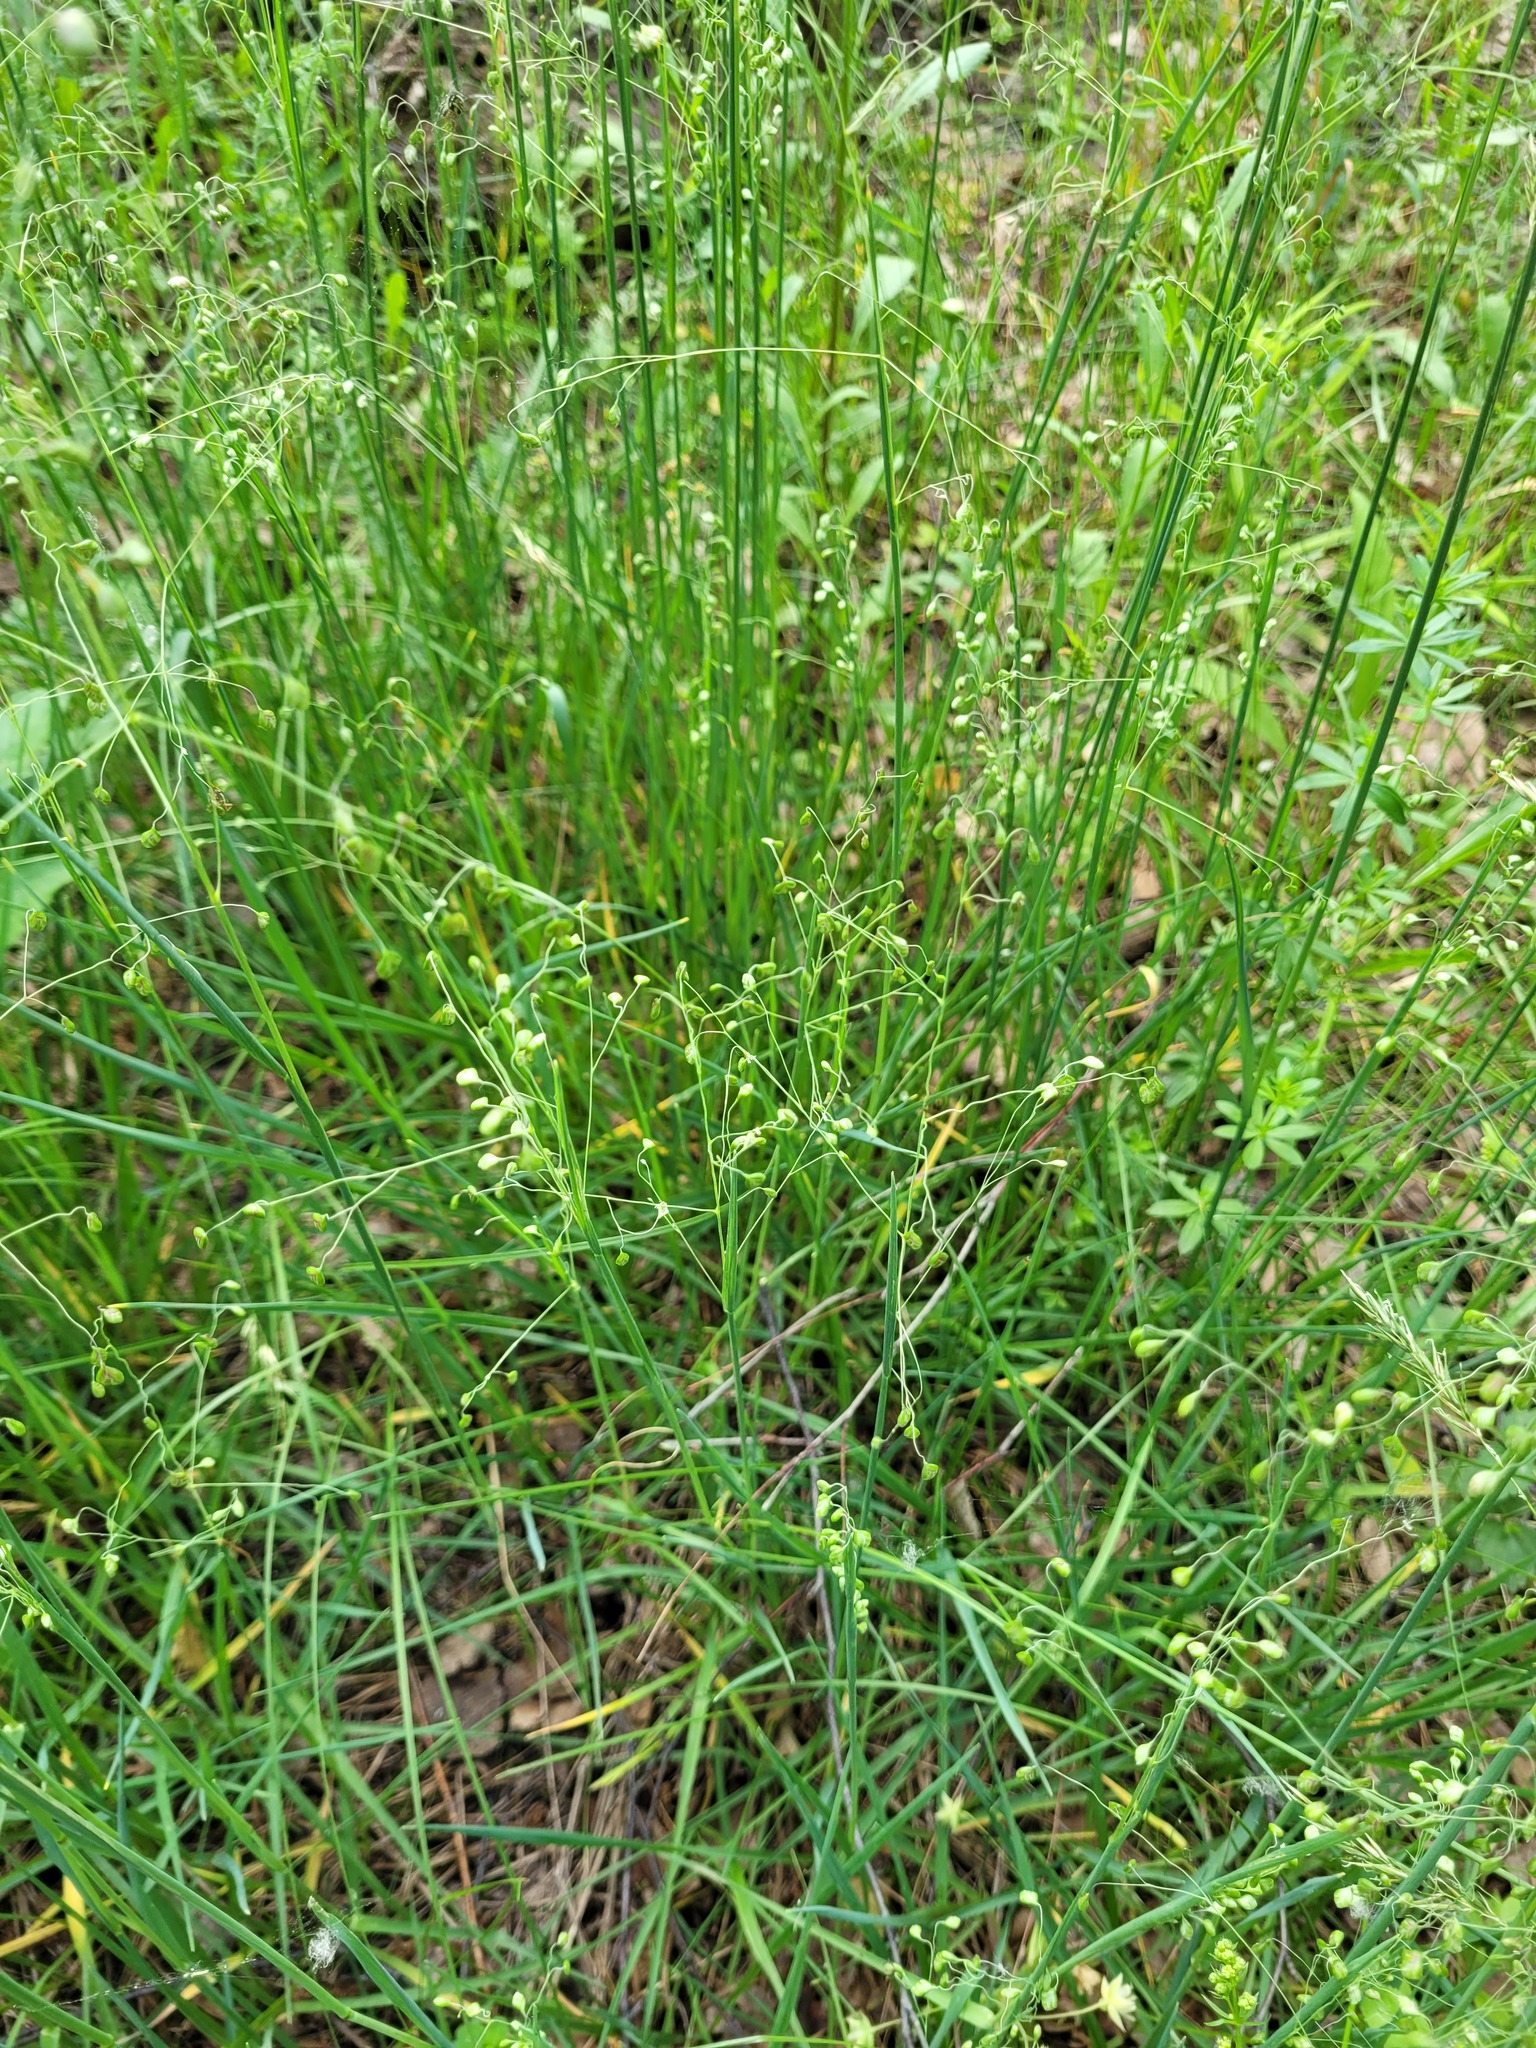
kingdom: Plantae
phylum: Tracheophyta
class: Liliopsida
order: Poales
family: Poaceae
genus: Briza
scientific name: Briza media
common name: Quaking grass
